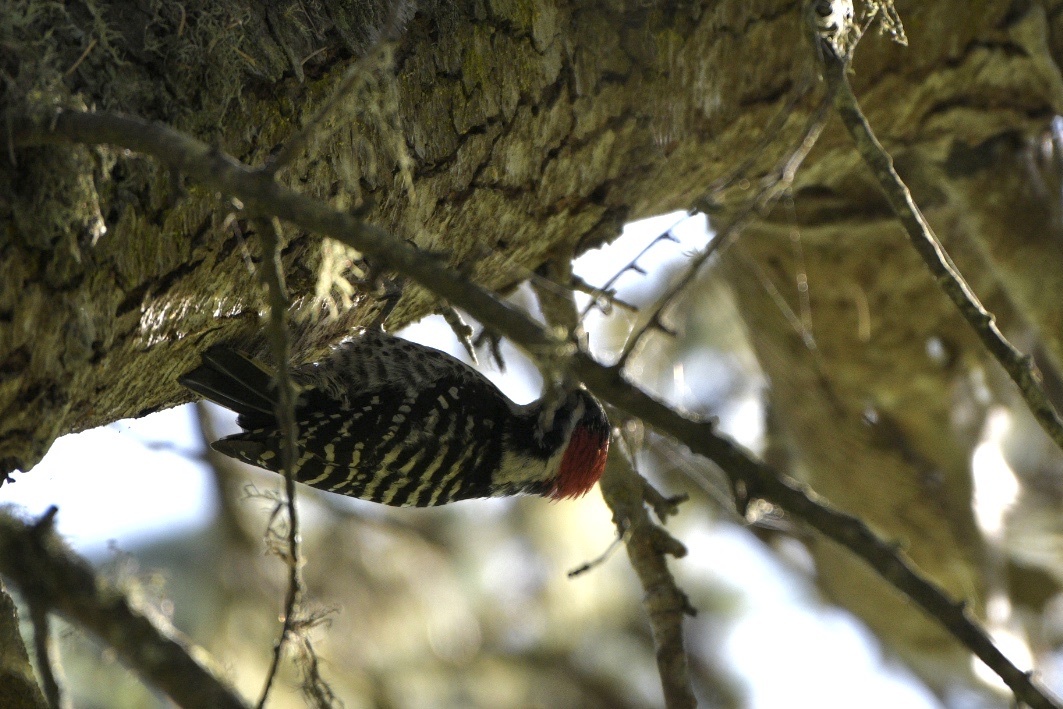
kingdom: Animalia
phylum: Chordata
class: Aves
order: Piciformes
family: Picidae
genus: Dryobates
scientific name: Dryobates nuttallii
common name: Nuttall's woodpecker
